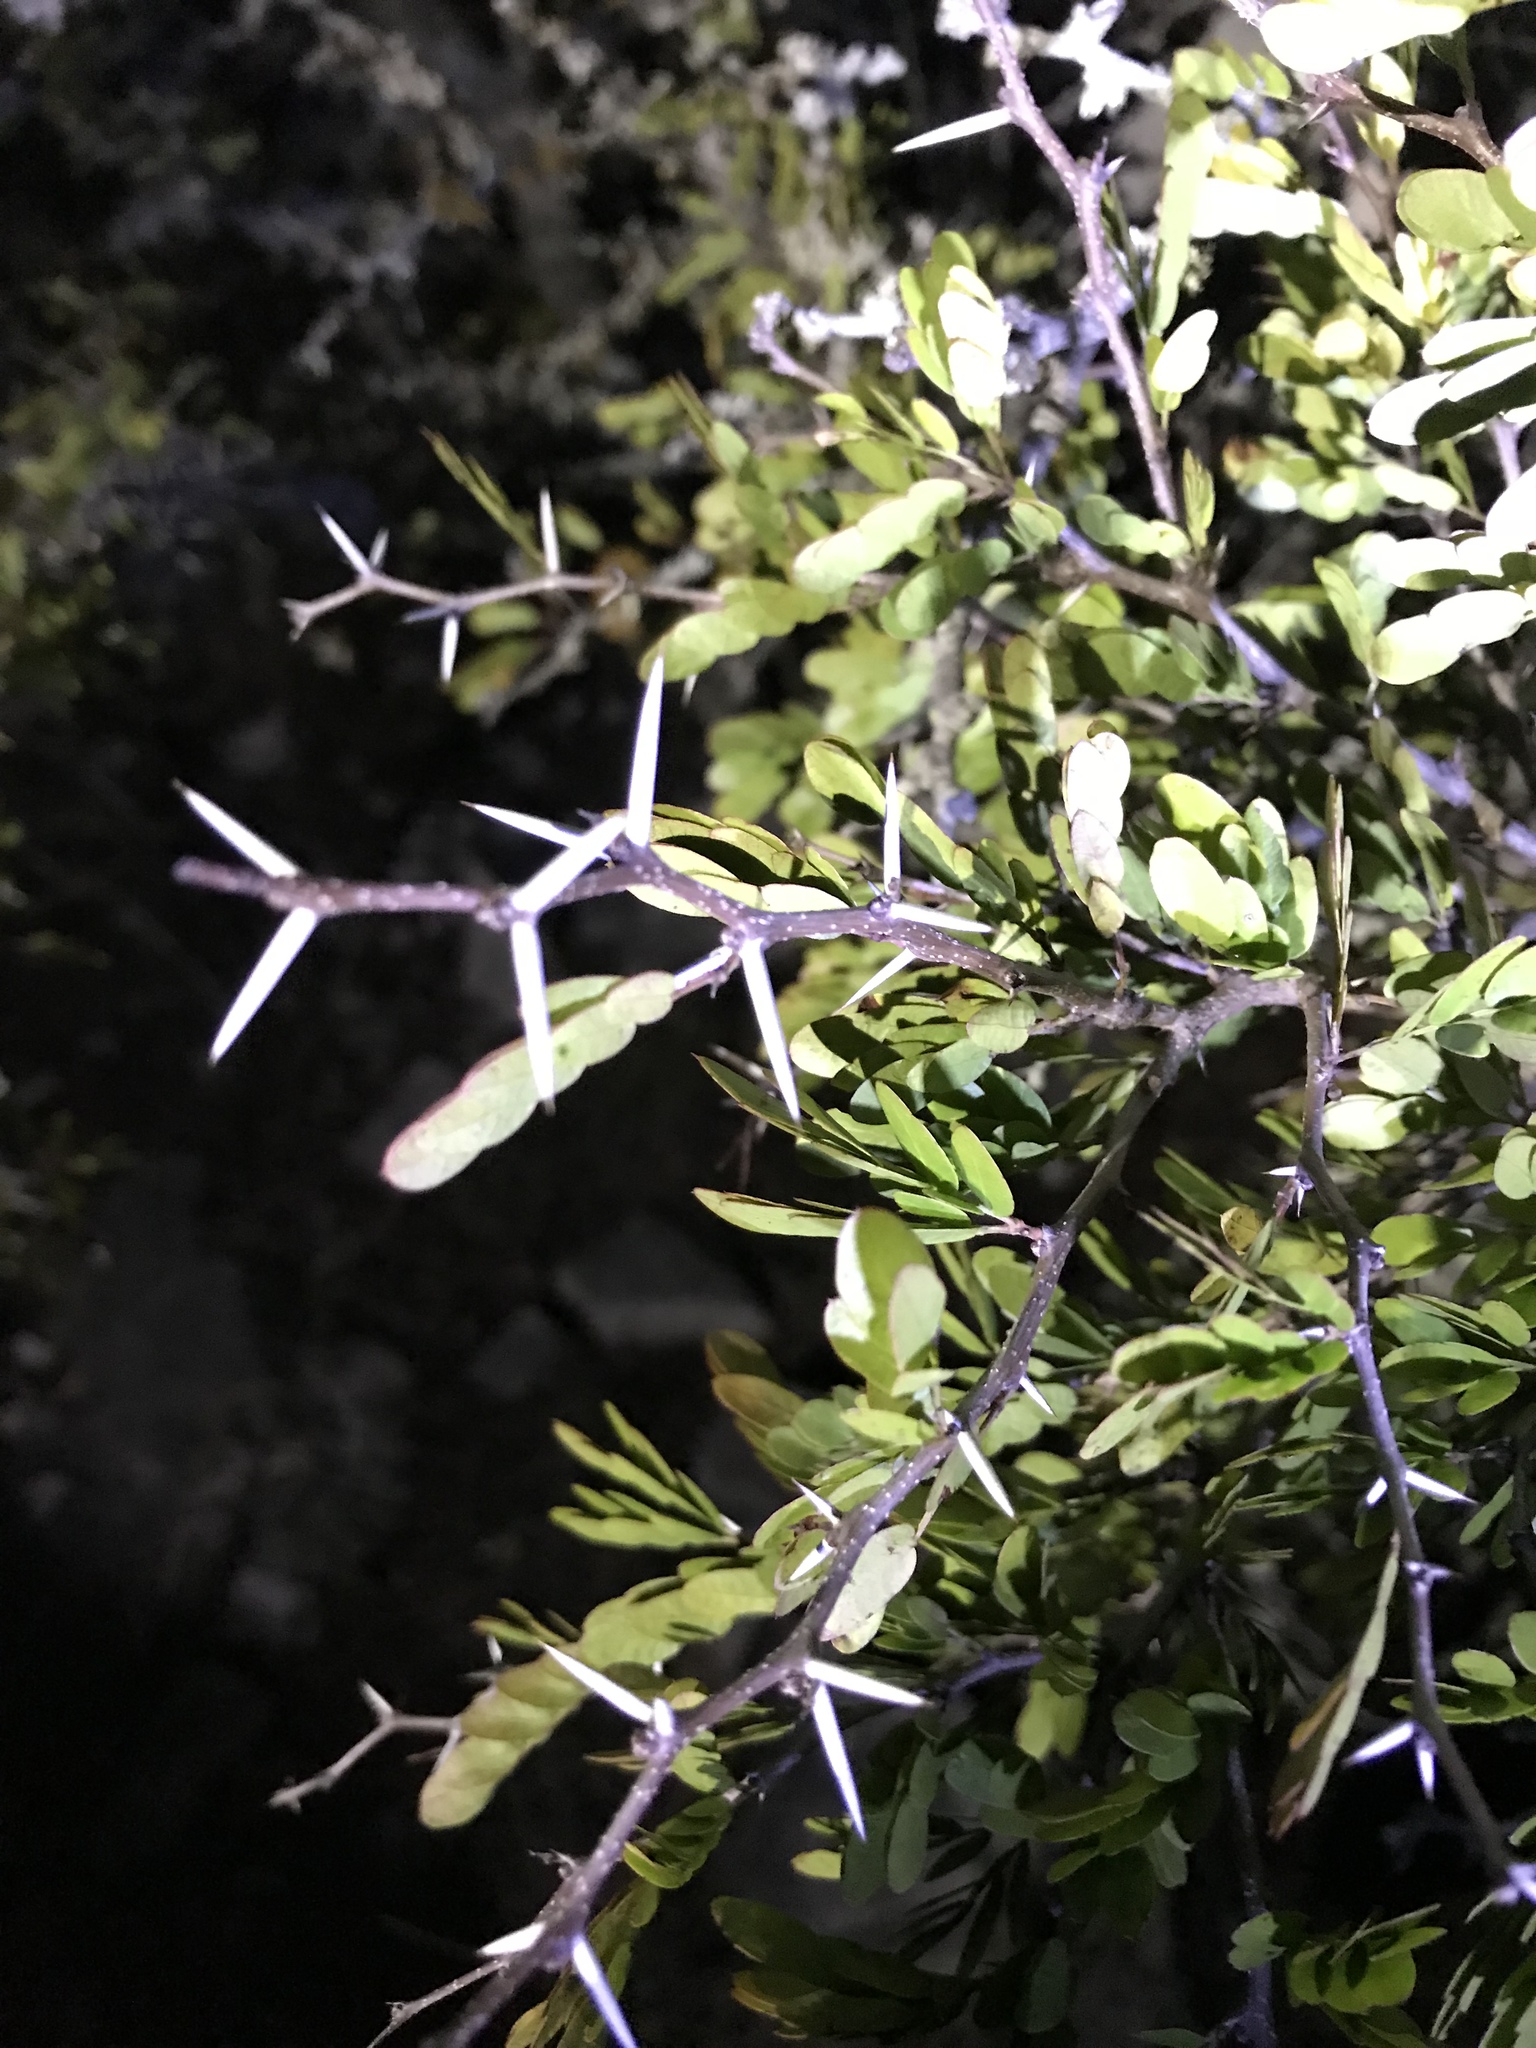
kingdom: Plantae
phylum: Tracheophyta
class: Magnoliopsida
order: Fabales
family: Fabaceae
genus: Vachellia
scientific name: Vachellia rigidula
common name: Blackbrush
